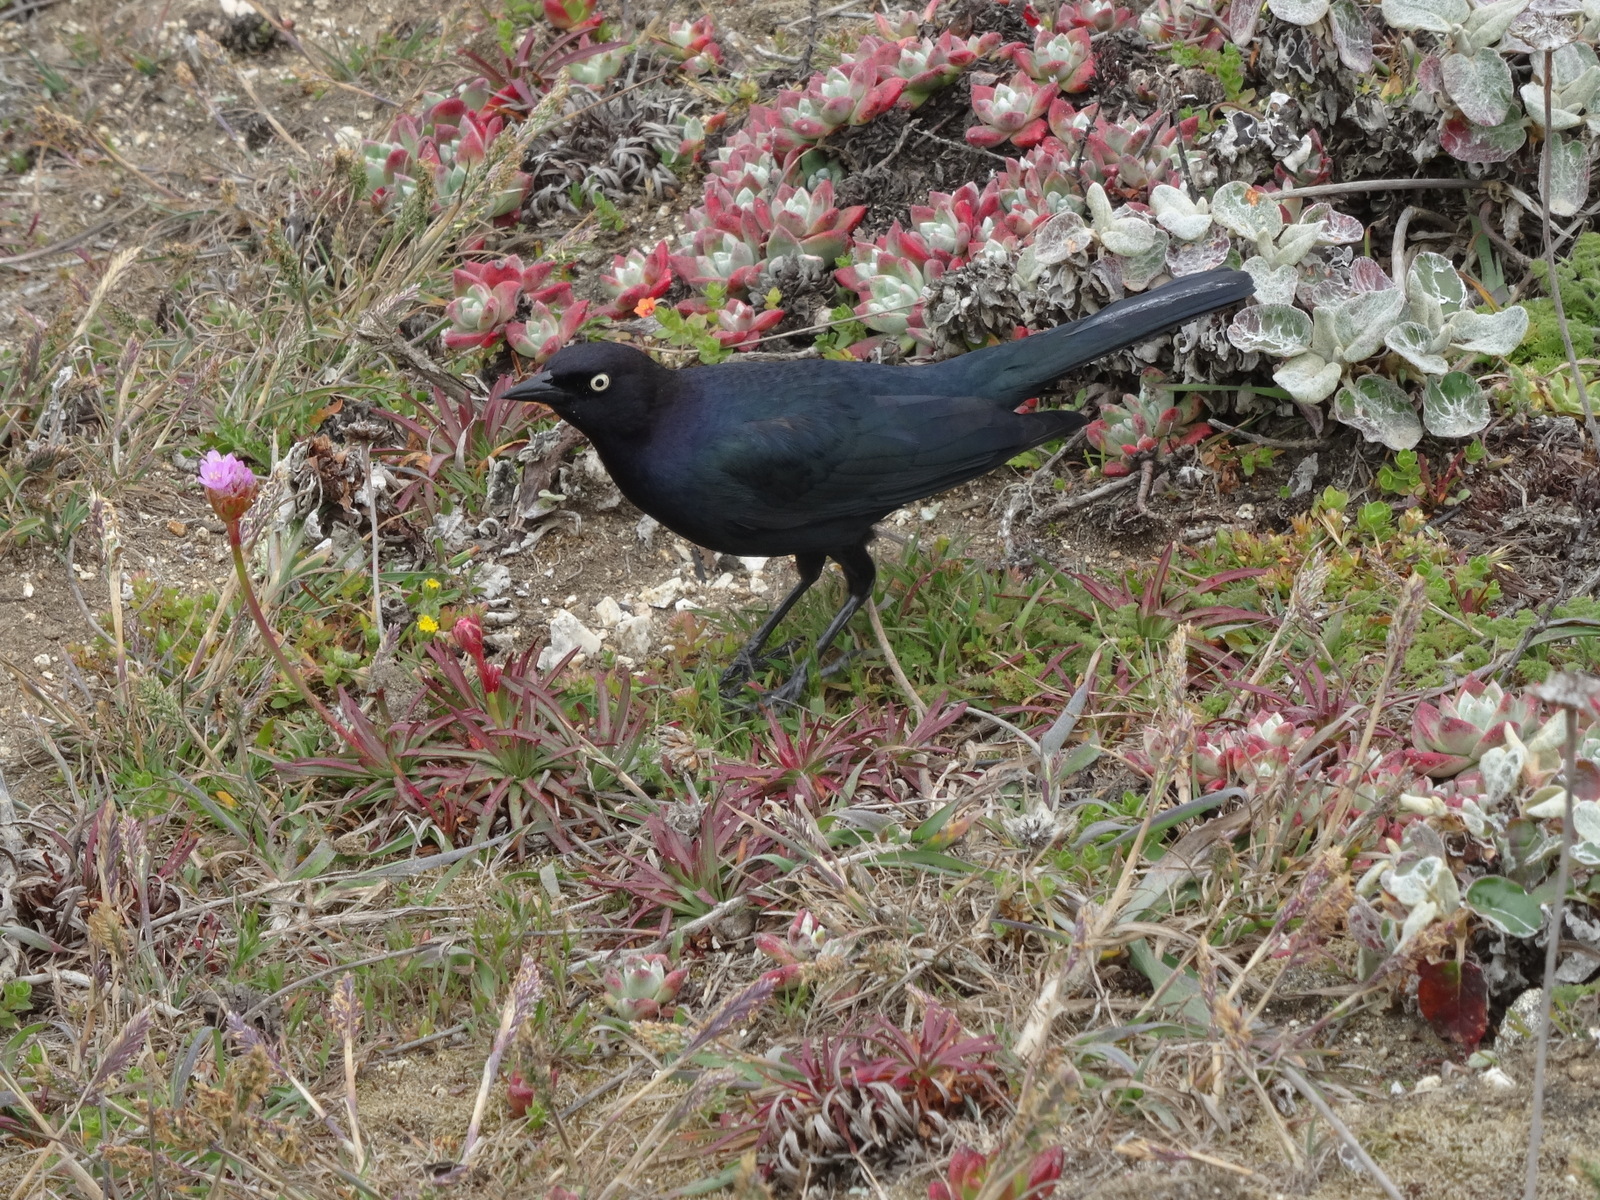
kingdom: Animalia
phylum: Chordata
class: Aves
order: Passeriformes
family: Icteridae
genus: Euphagus
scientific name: Euphagus cyanocephalus
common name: Brewer's blackbird
